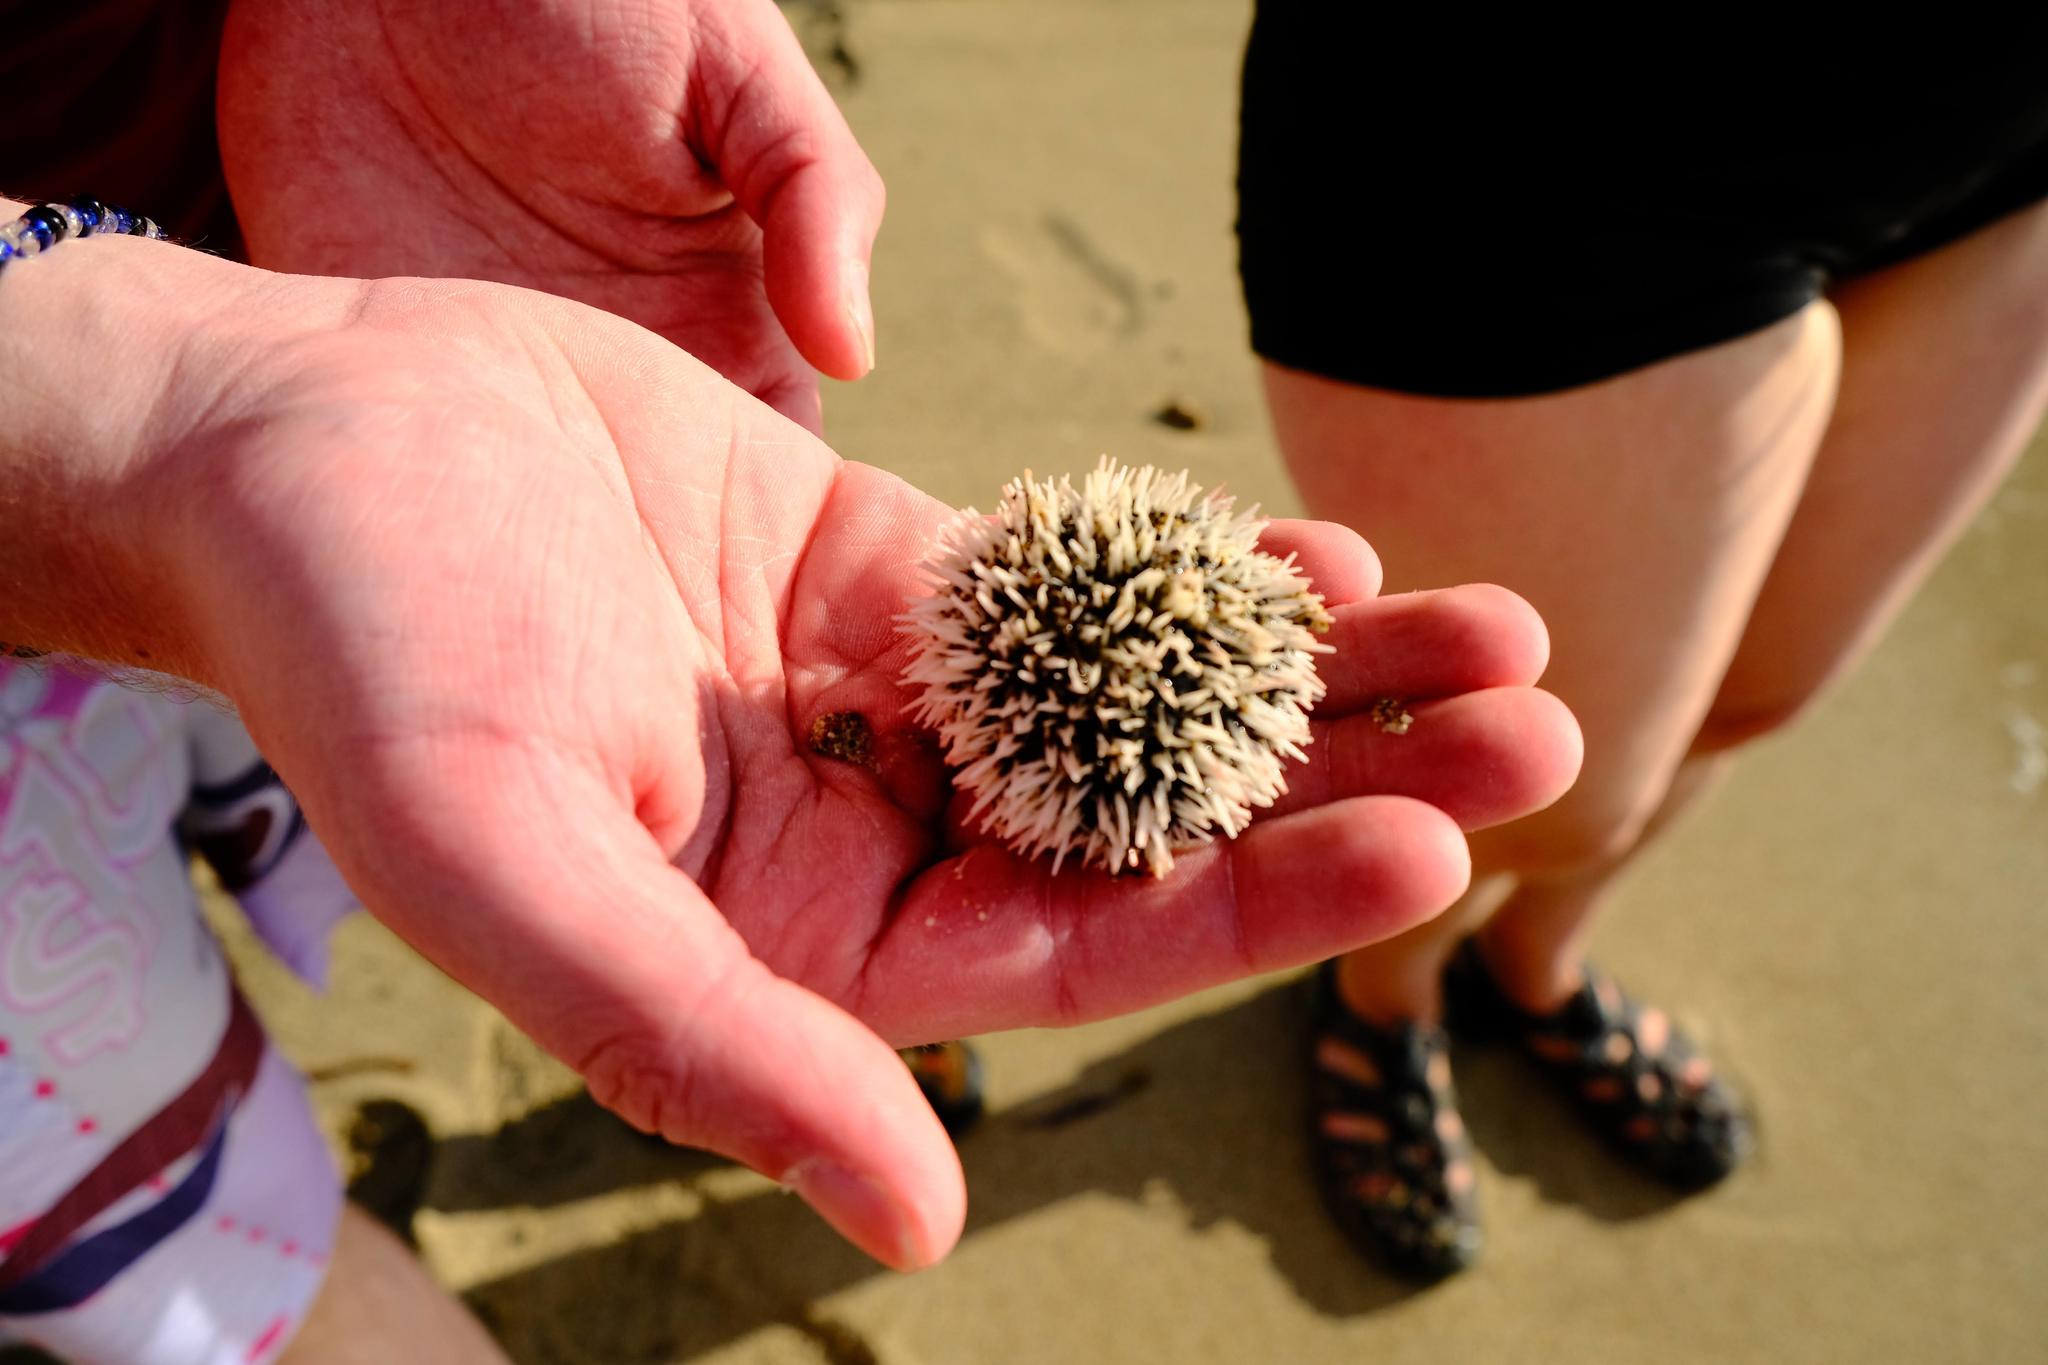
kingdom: Animalia
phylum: Echinodermata
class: Echinoidea
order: Camarodonta
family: Toxopneustidae
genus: Tripneustes
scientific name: Tripneustes ventricosus
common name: West indian sea egg
